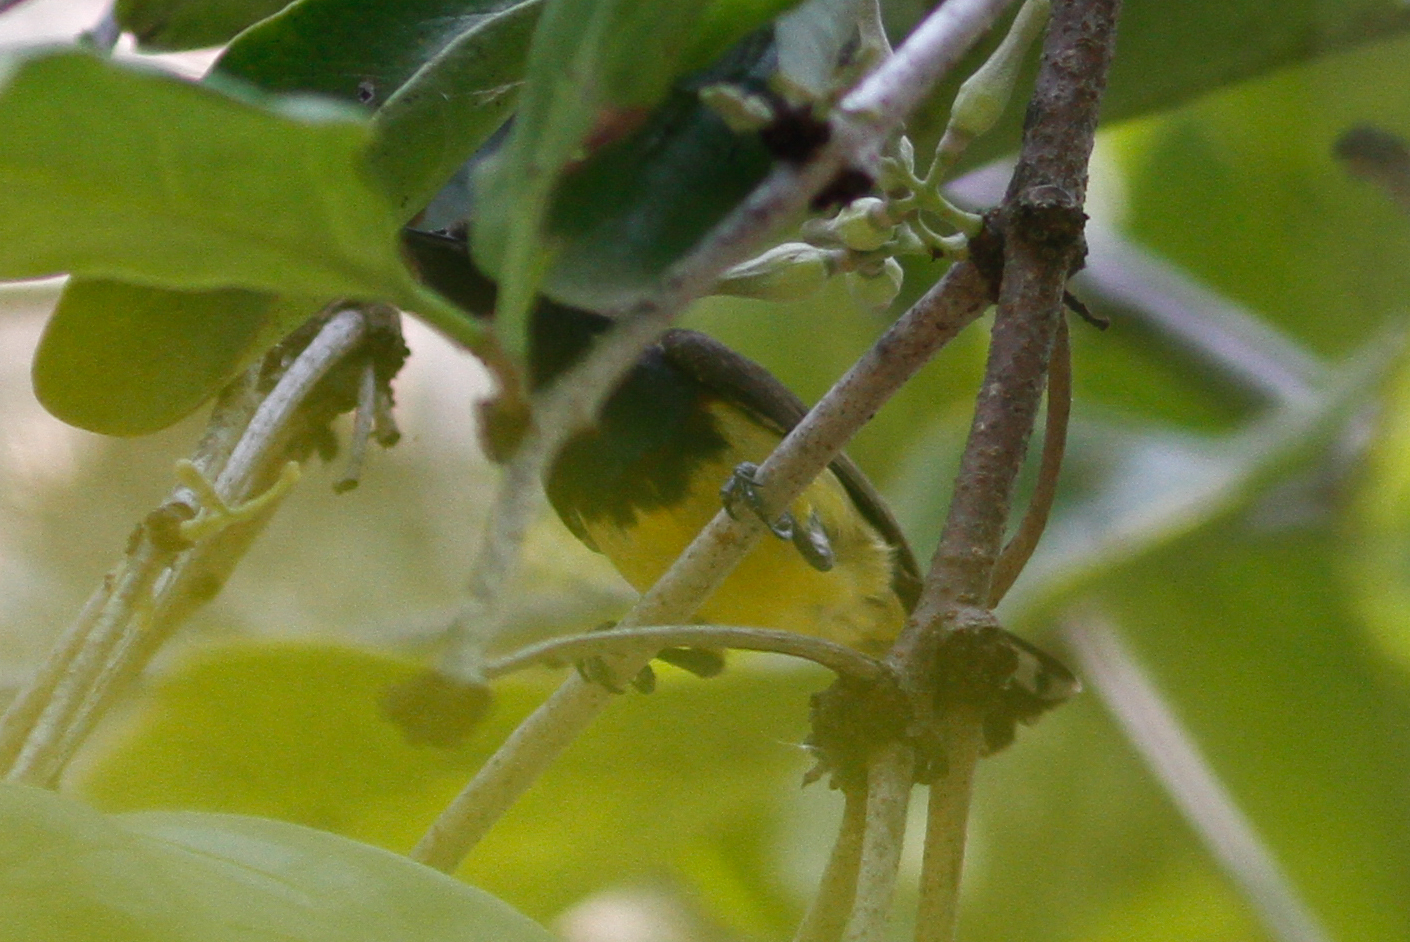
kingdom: Animalia
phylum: Chordata
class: Aves
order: Passeriformes
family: Nectariniidae
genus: Cinnyris
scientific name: Cinnyris
